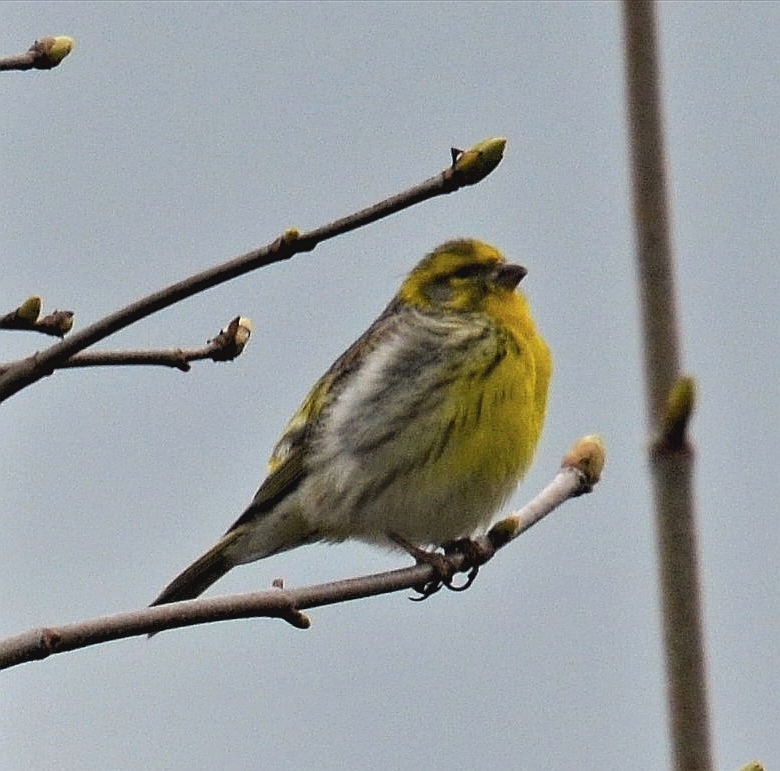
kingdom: Animalia
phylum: Chordata
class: Aves
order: Passeriformes
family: Fringillidae
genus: Serinus
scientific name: Serinus serinus
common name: European serin
